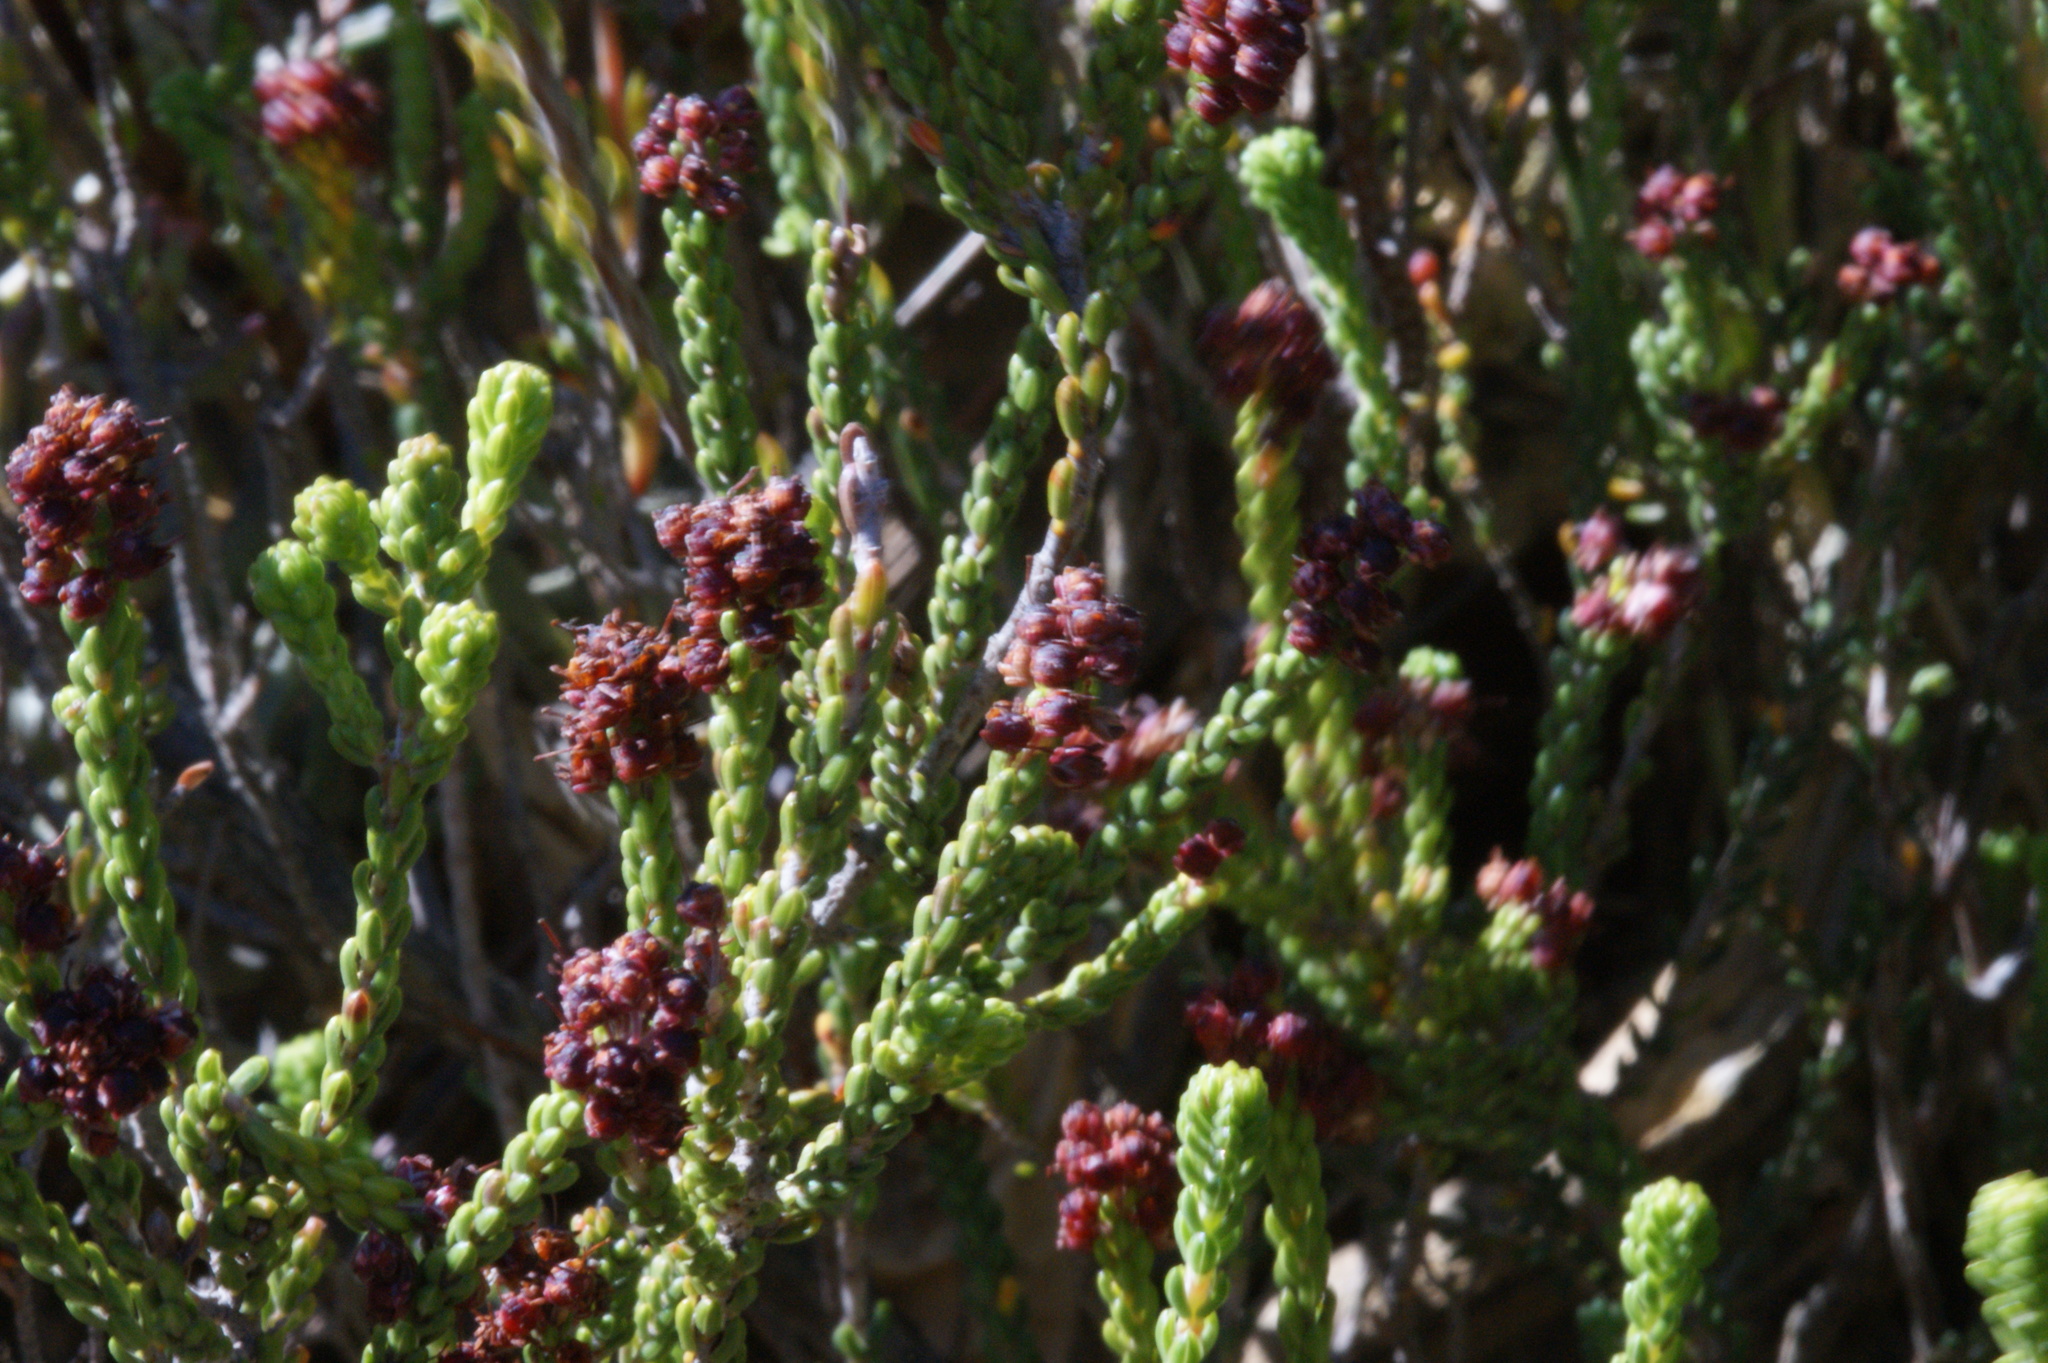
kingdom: Plantae
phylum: Tracheophyta
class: Magnoliopsida
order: Ericales
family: Ericaceae
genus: Erica
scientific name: Erica petraea
